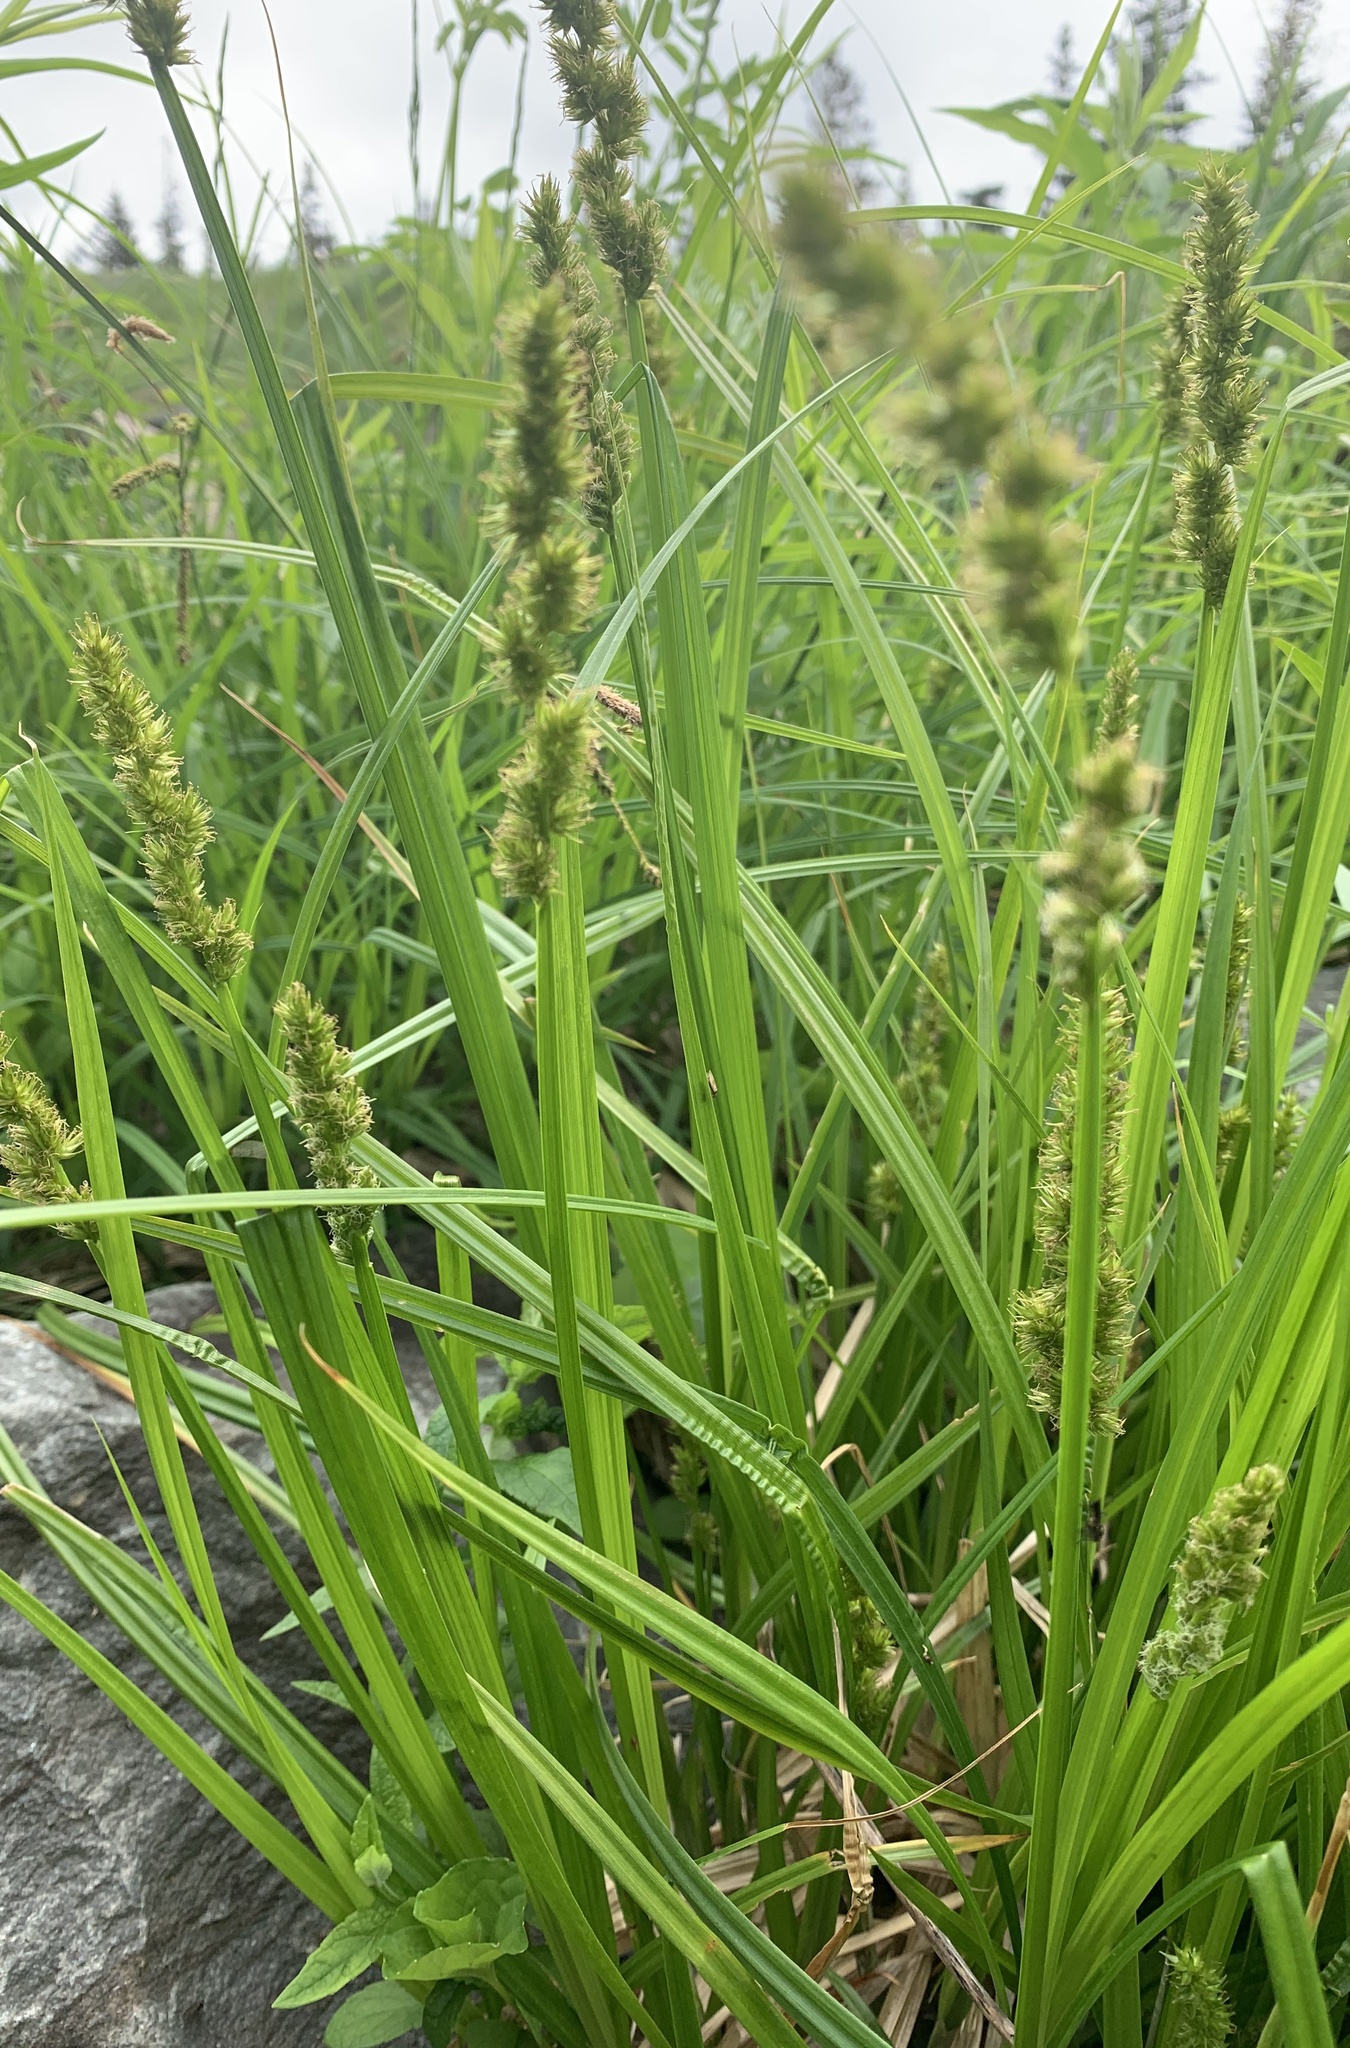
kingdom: Plantae
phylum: Tracheophyta
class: Liliopsida
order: Poales
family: Cyperaceae
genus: Carex
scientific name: Carex stipata
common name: Awl-fruited sedge
